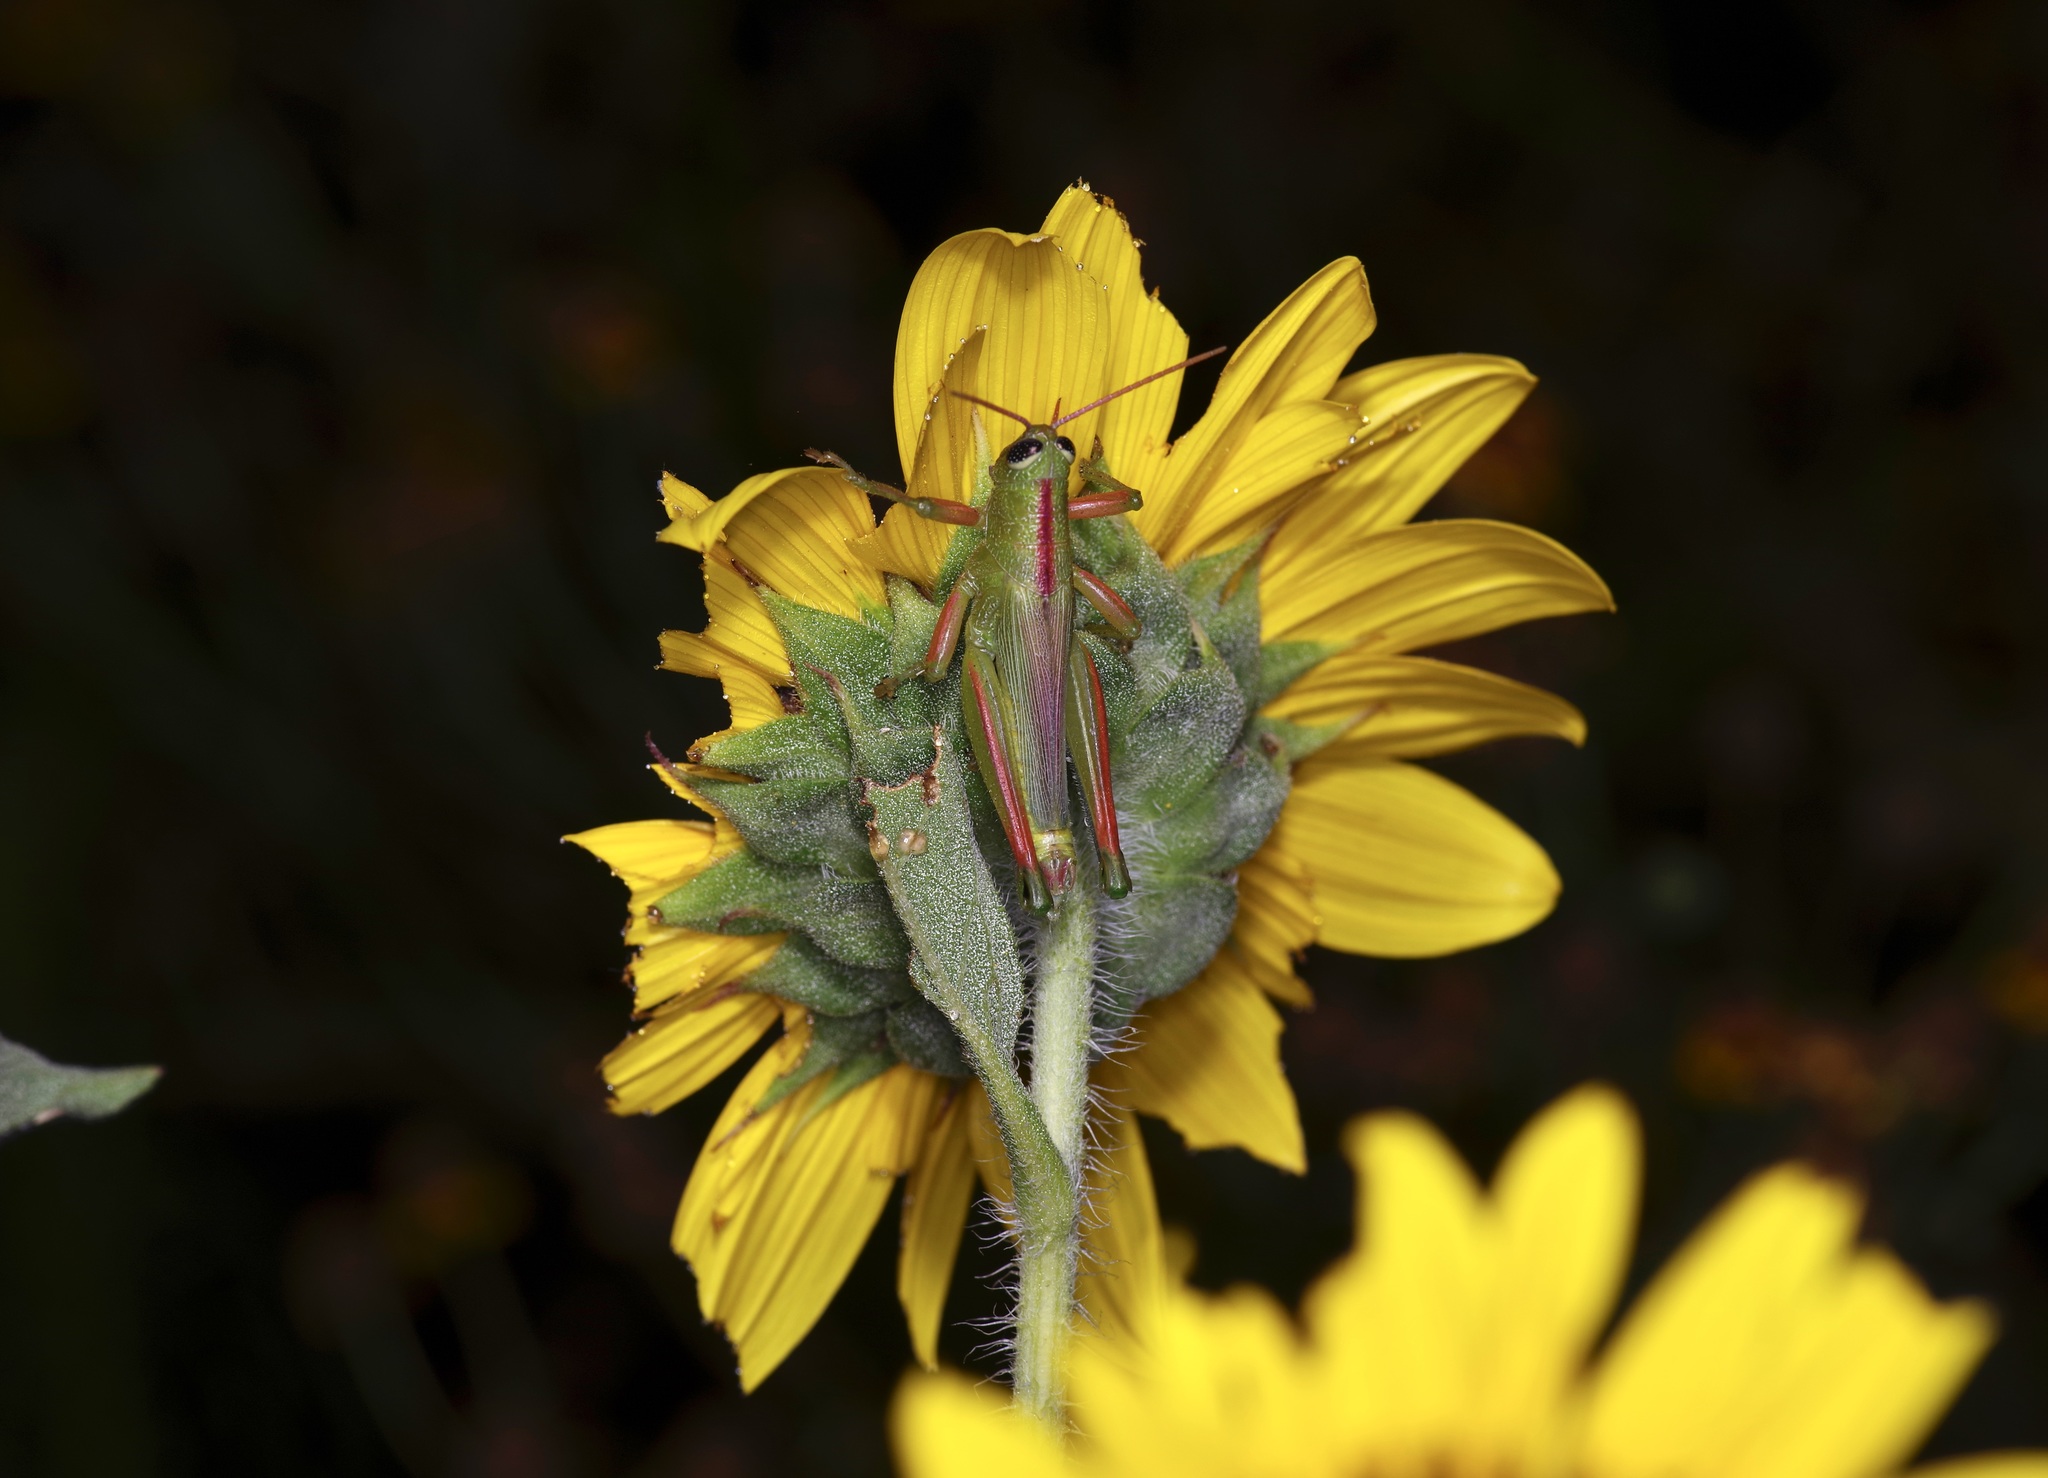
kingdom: Animalia
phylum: Arthropoda
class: Insecta
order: Orthoptera
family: Acrididae
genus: Hesperotettix
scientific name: Hesperotettix speciosus
